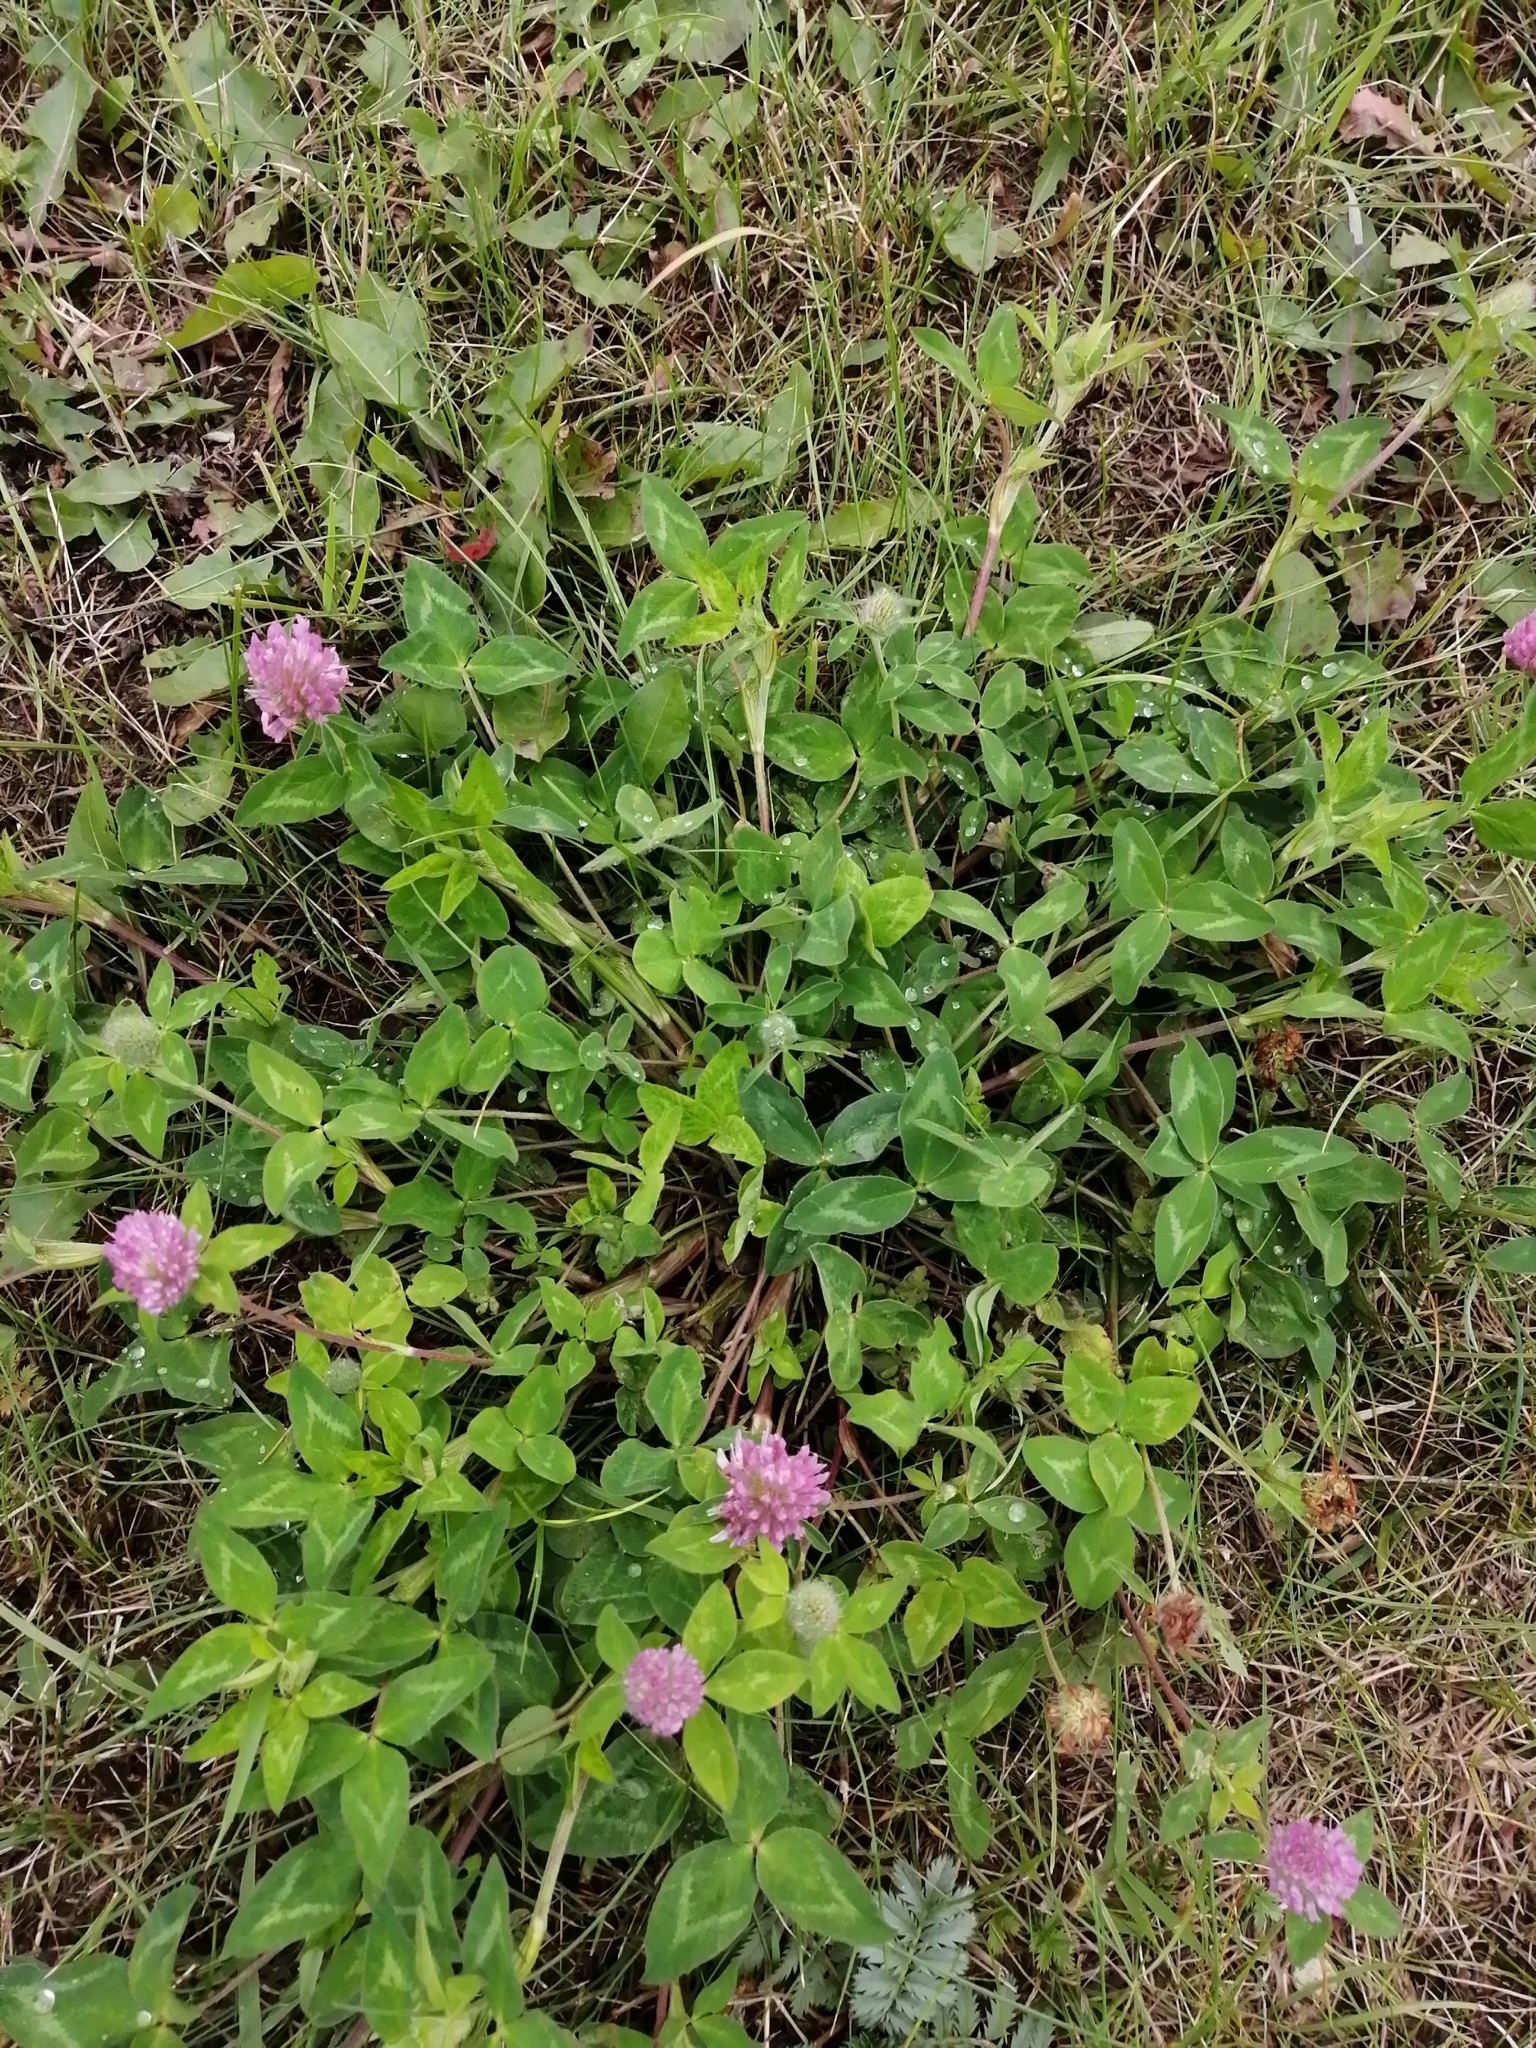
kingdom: Plantae
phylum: Tracheophyta
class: Magnoliopsida
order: Fabales
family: Fabaceae
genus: Trifolium
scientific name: Trifolium pratense
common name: Red clover
